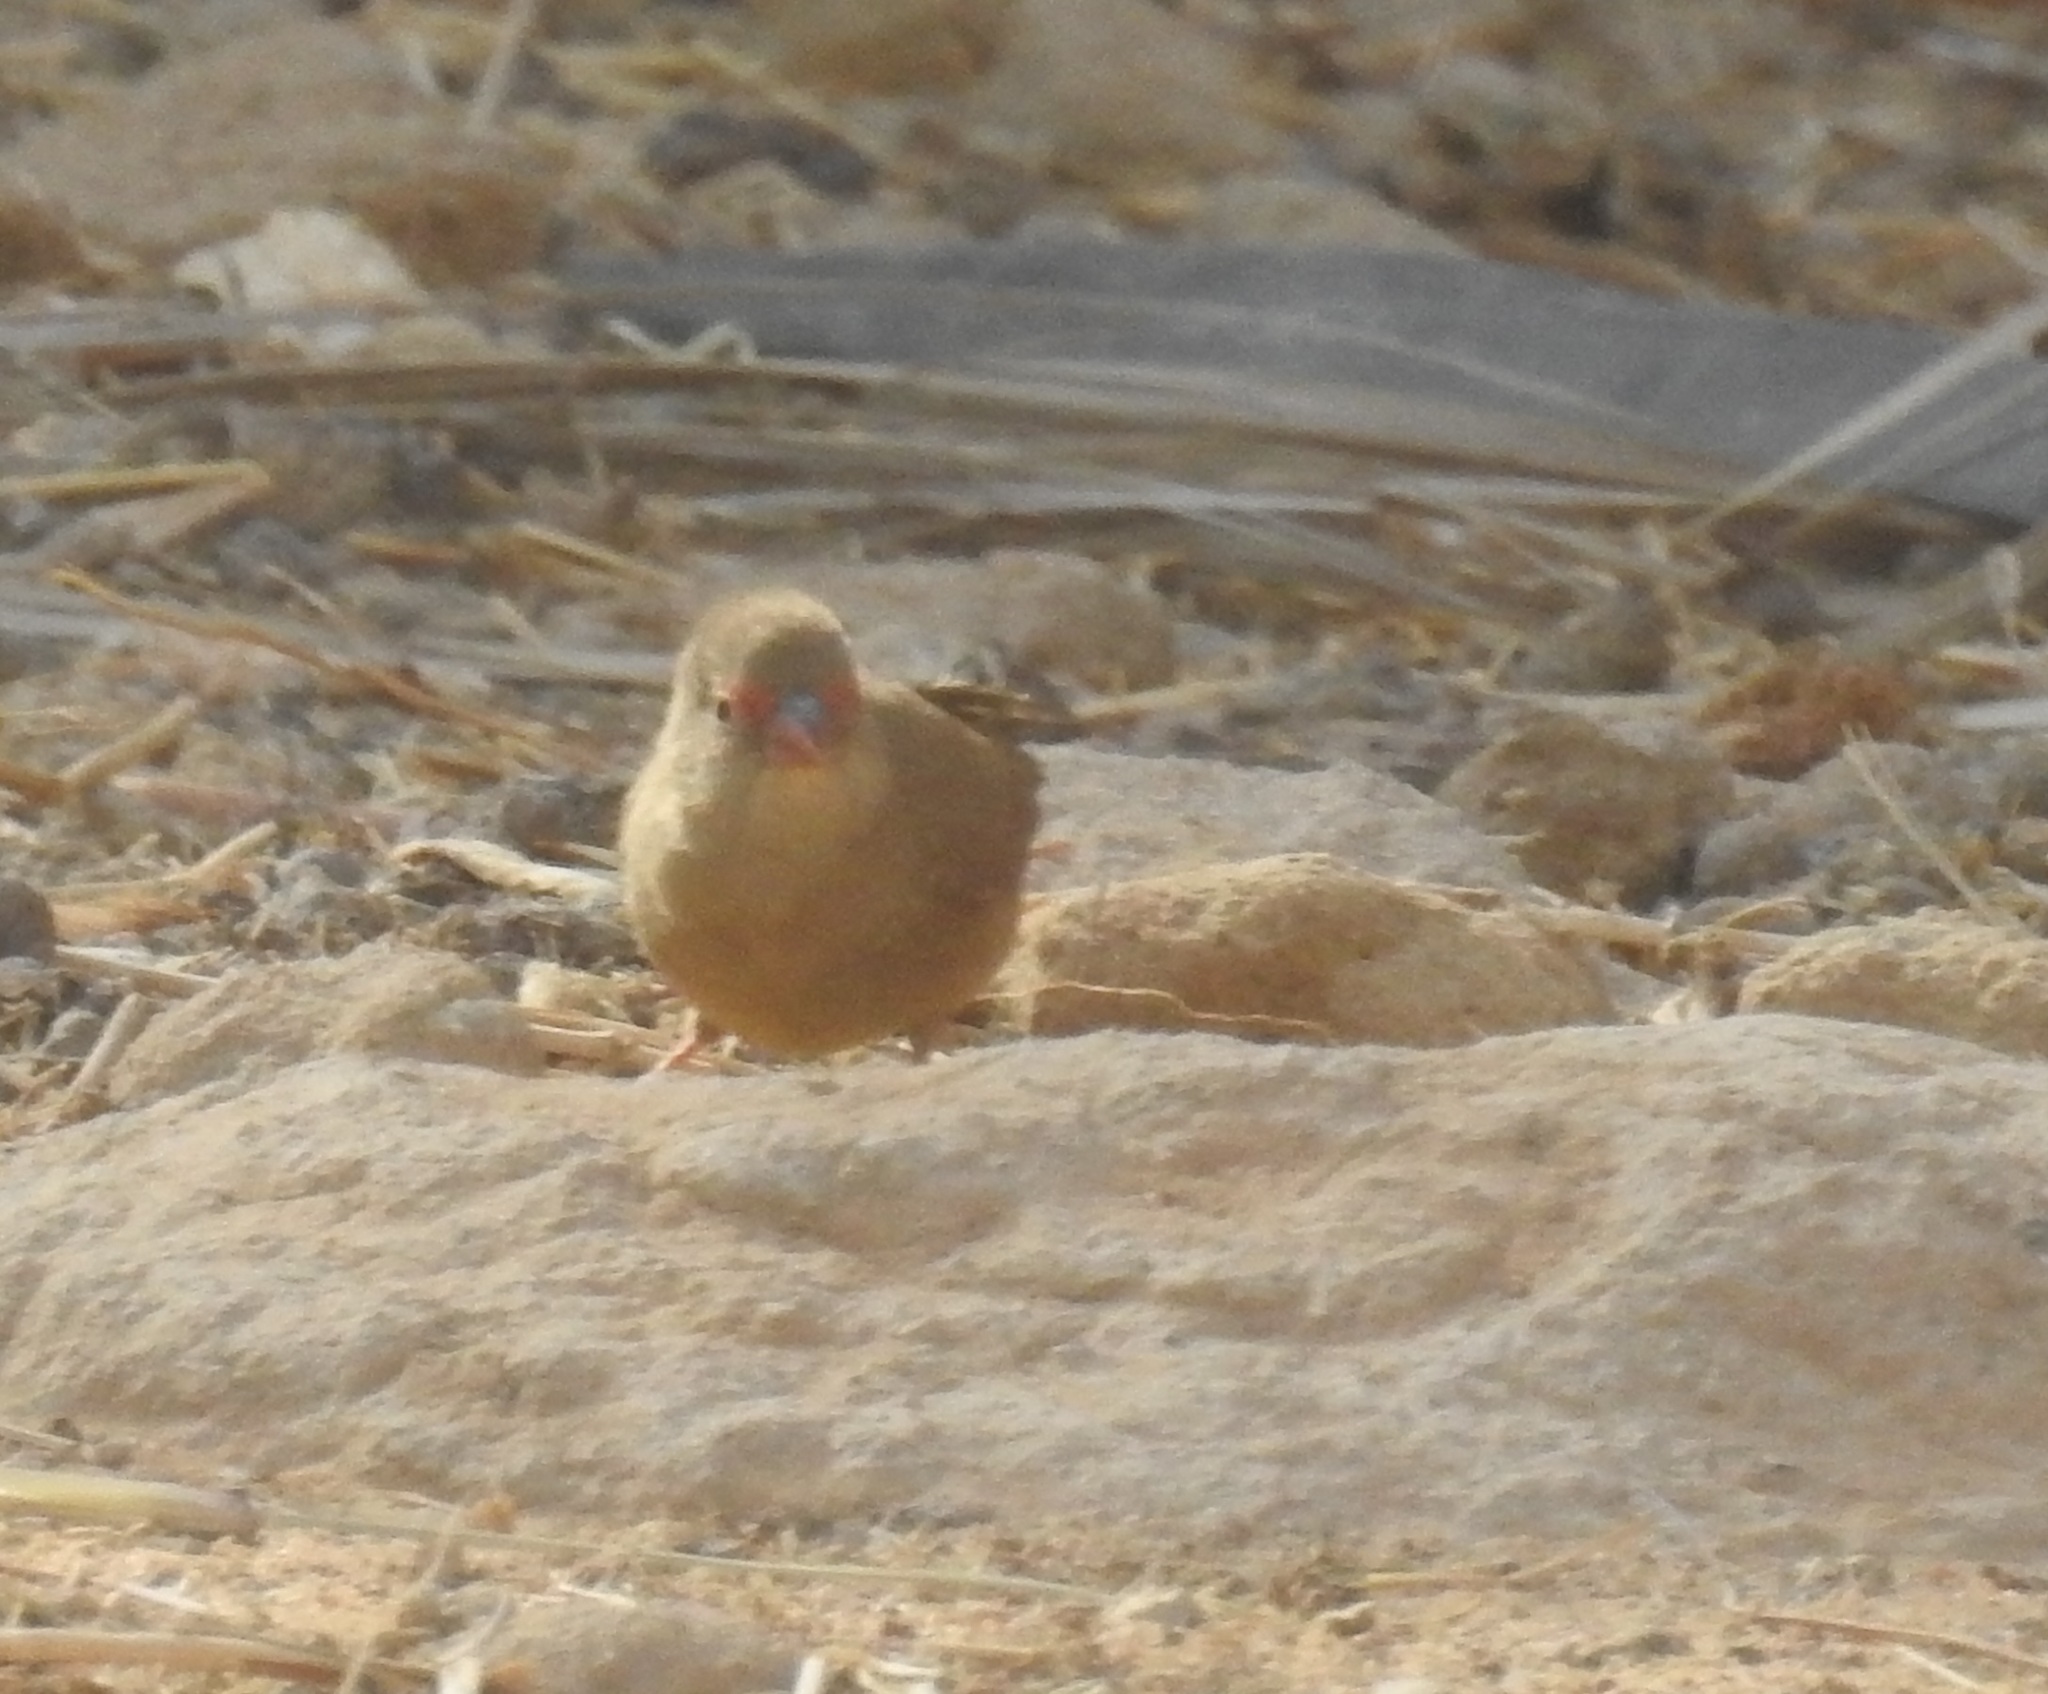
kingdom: Animalia
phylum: Chordata
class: Aves
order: Passeriformes
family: Estrildidae
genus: Lagonosticta
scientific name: Lagonosticta senegala
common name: Red-billed firefinch
